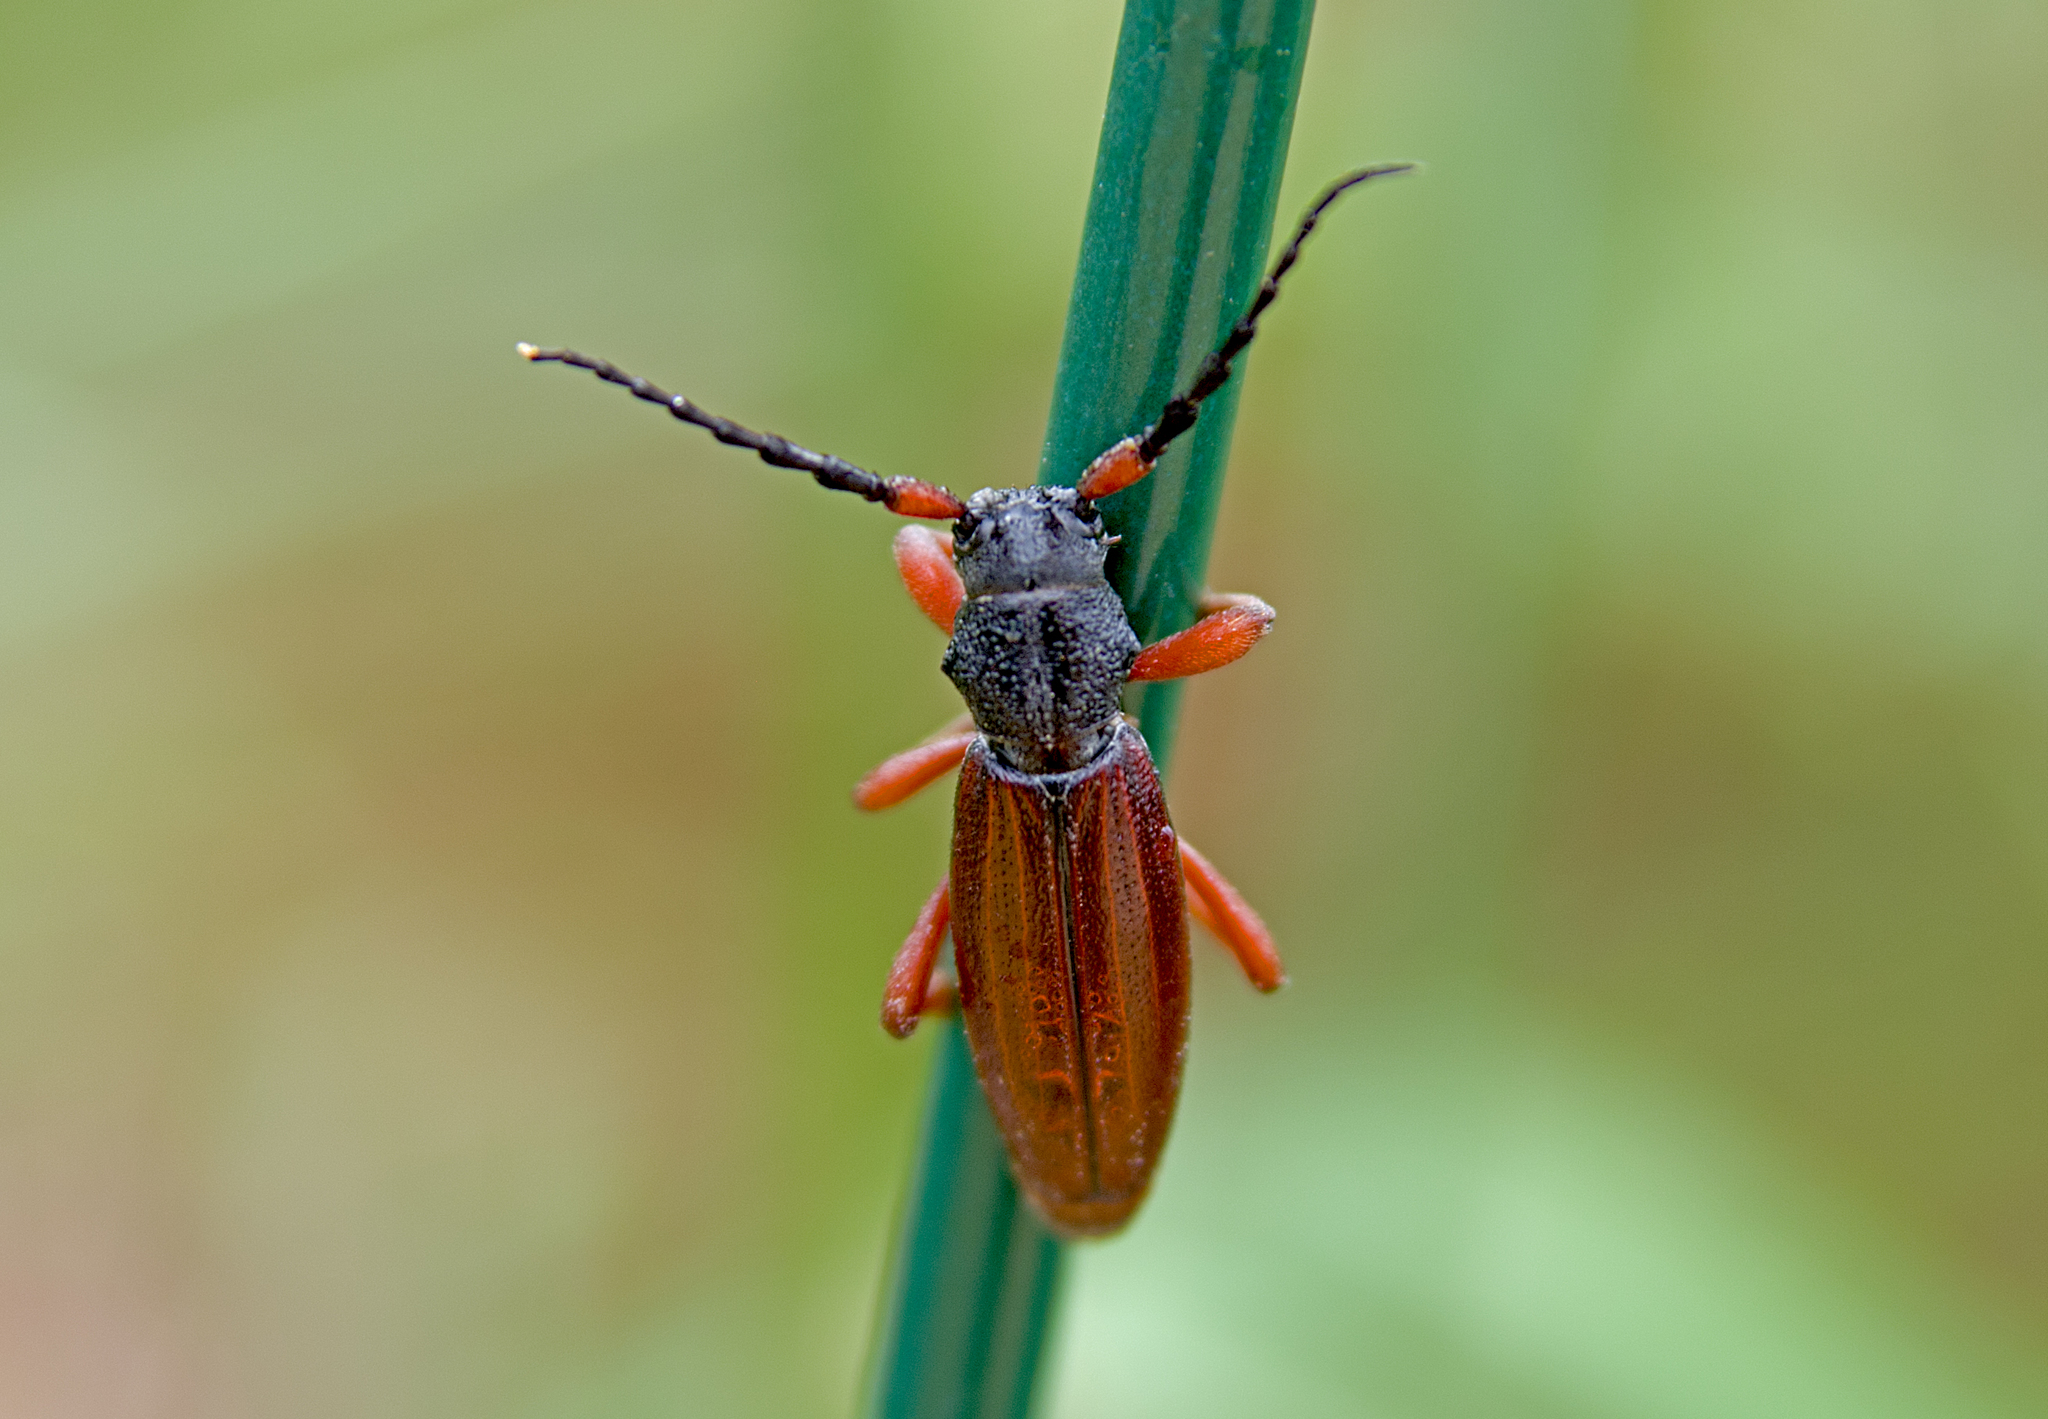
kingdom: Animalia
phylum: Arthropoda
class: Insecta
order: Coleoptera
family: Cerambycidae
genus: Dorcadion
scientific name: Dorcadion fulvum
